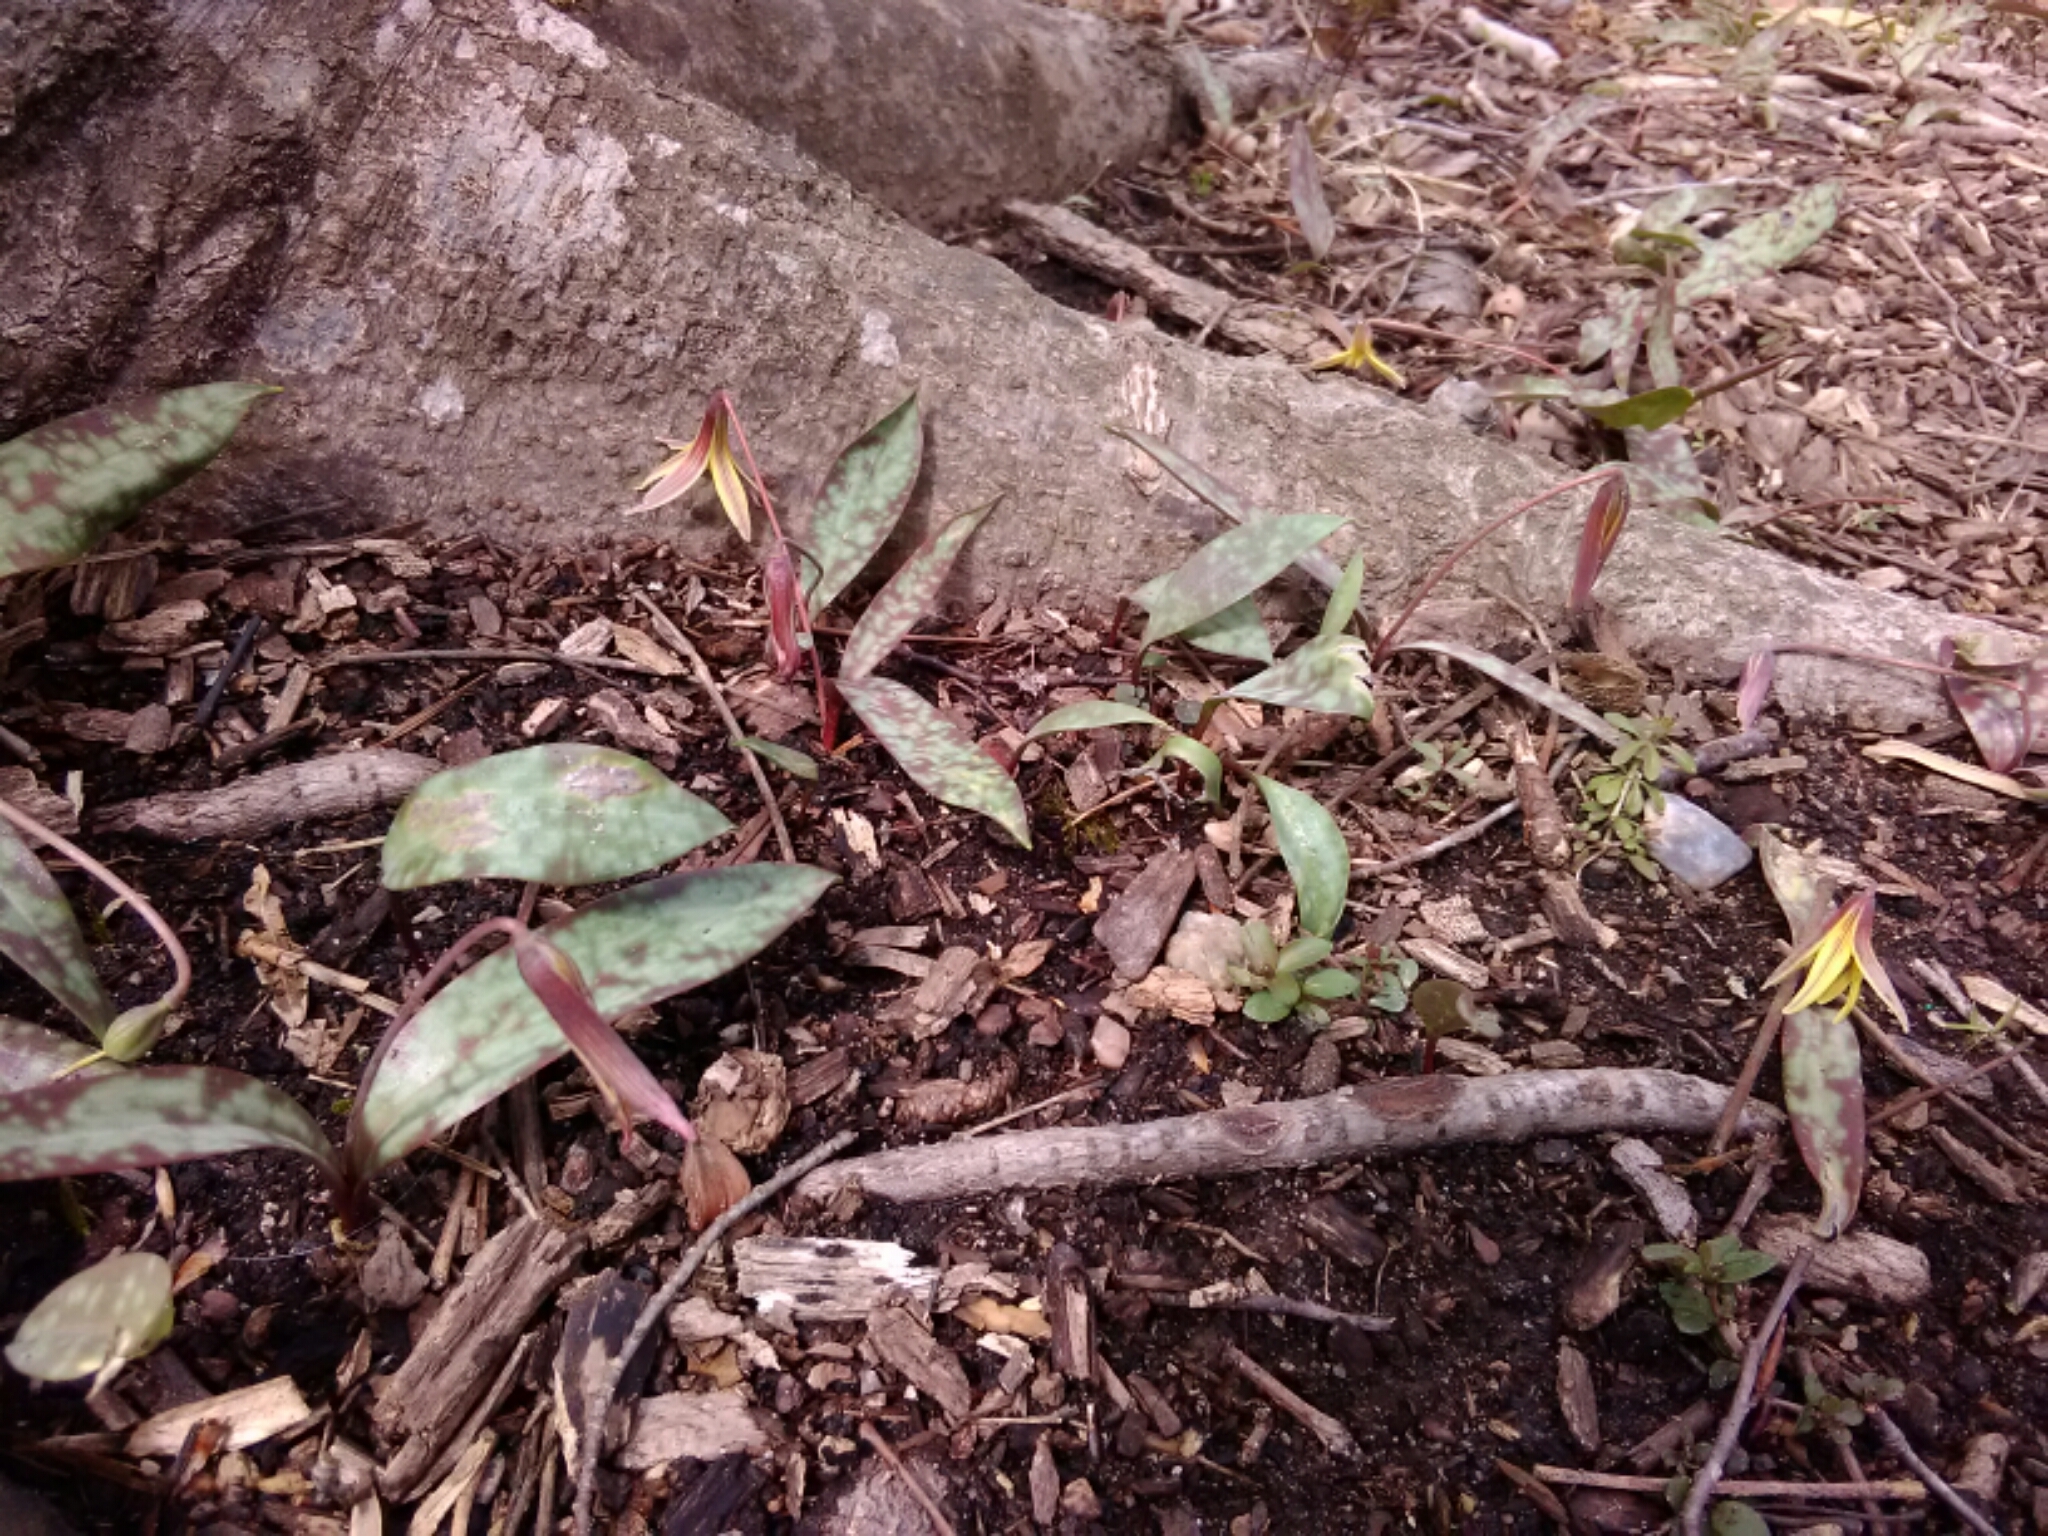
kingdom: Plantae
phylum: Tracheophyta
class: Liliopsida
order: Liliales
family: Liliaceae
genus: Erythronium
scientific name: Erythronium umbilicatum
